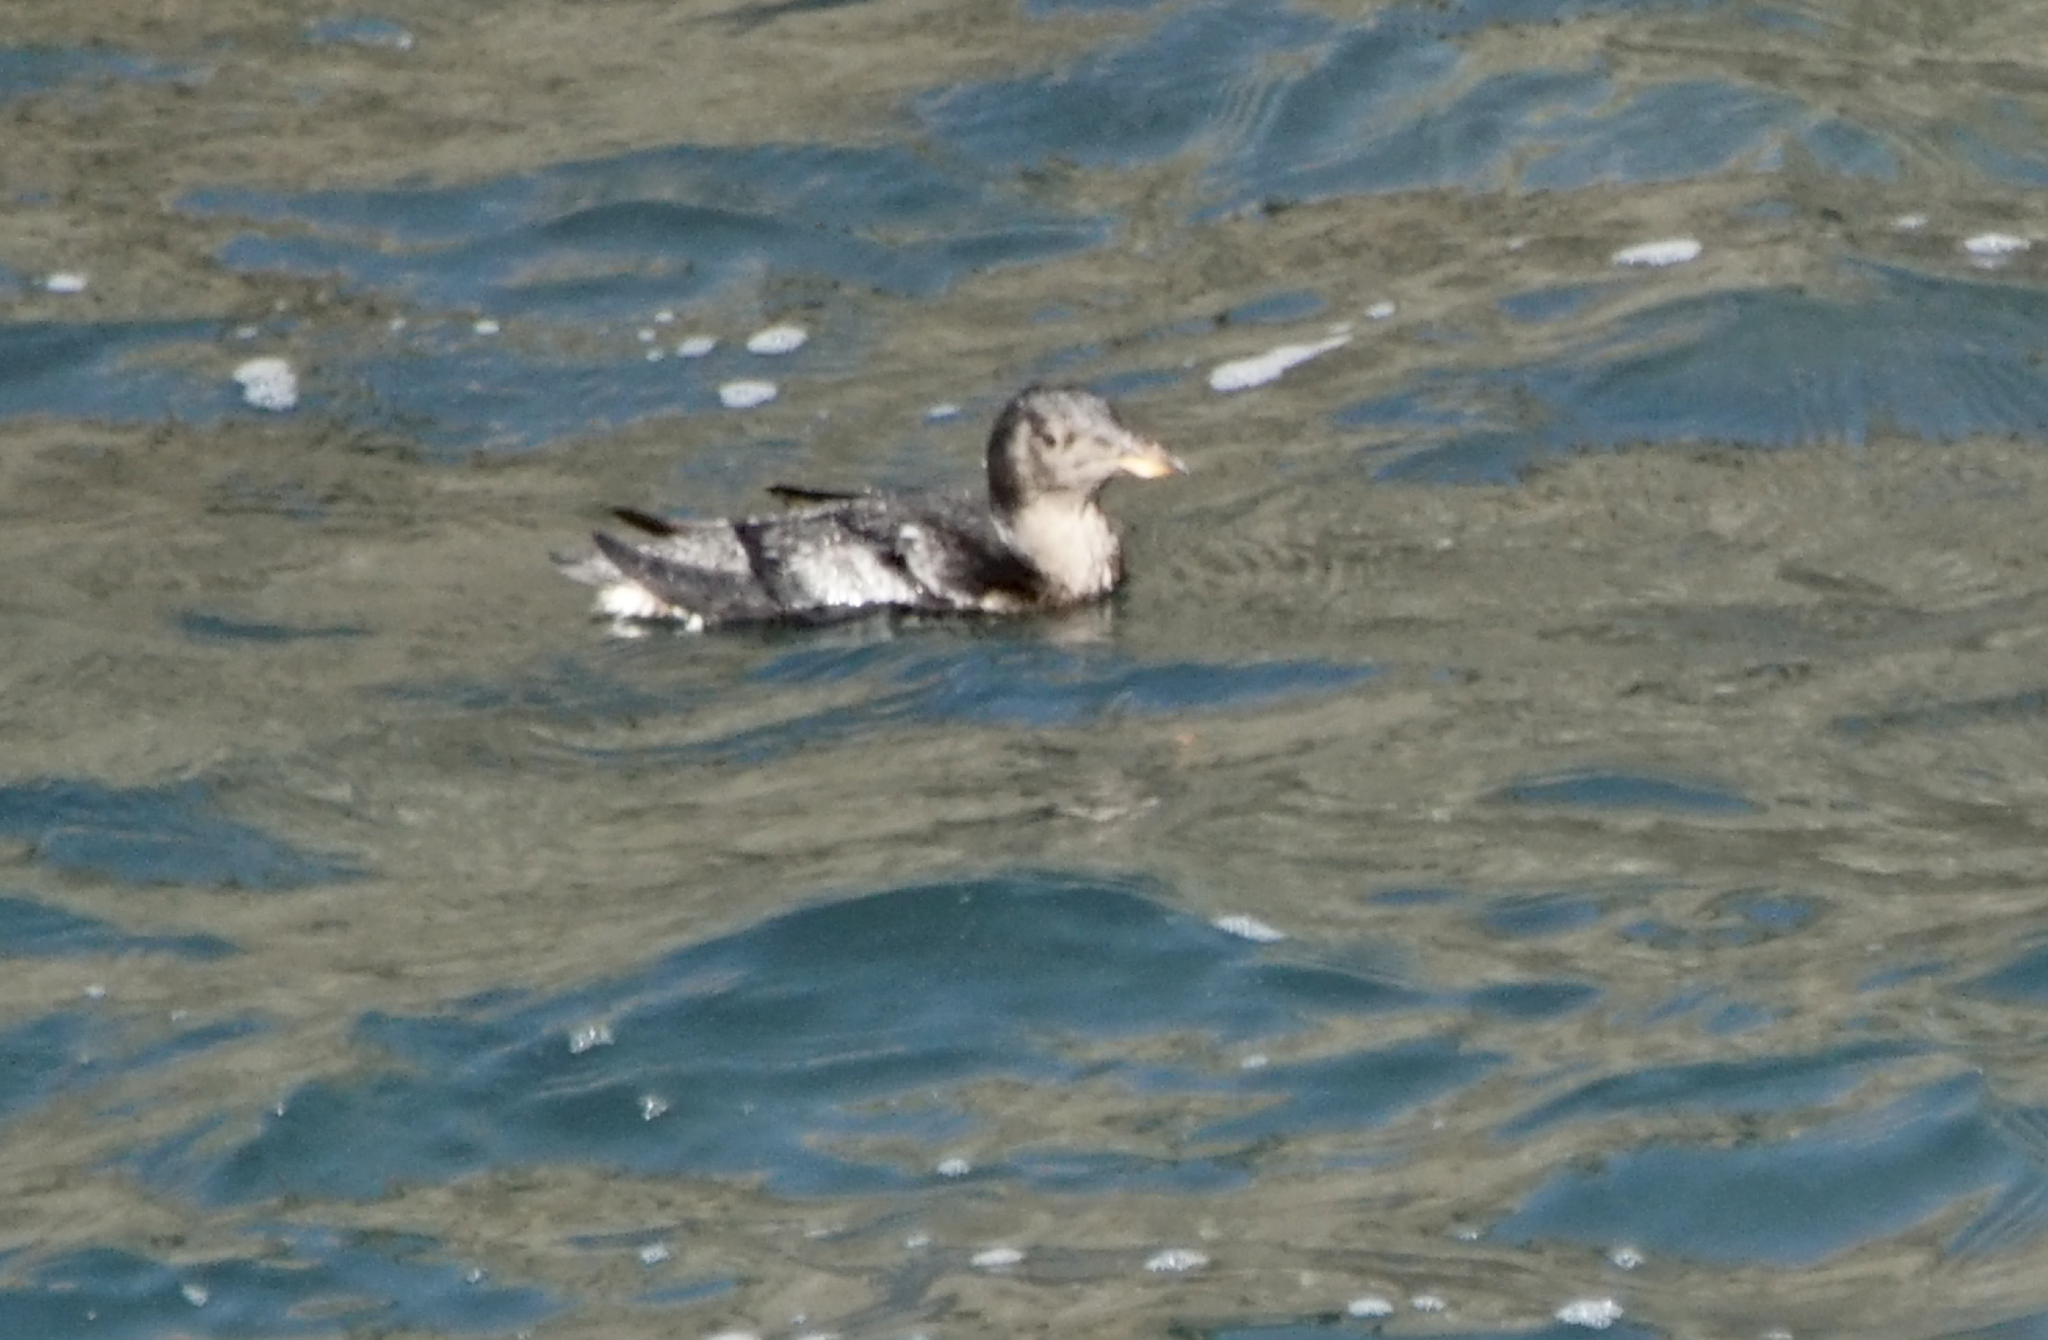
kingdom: Animalia
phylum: Chordata
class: Aves
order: Charadriiformes
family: Alcidae
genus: Cerorhinca
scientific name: Cerorhinca monocerata
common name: Rhinoceros auklet
